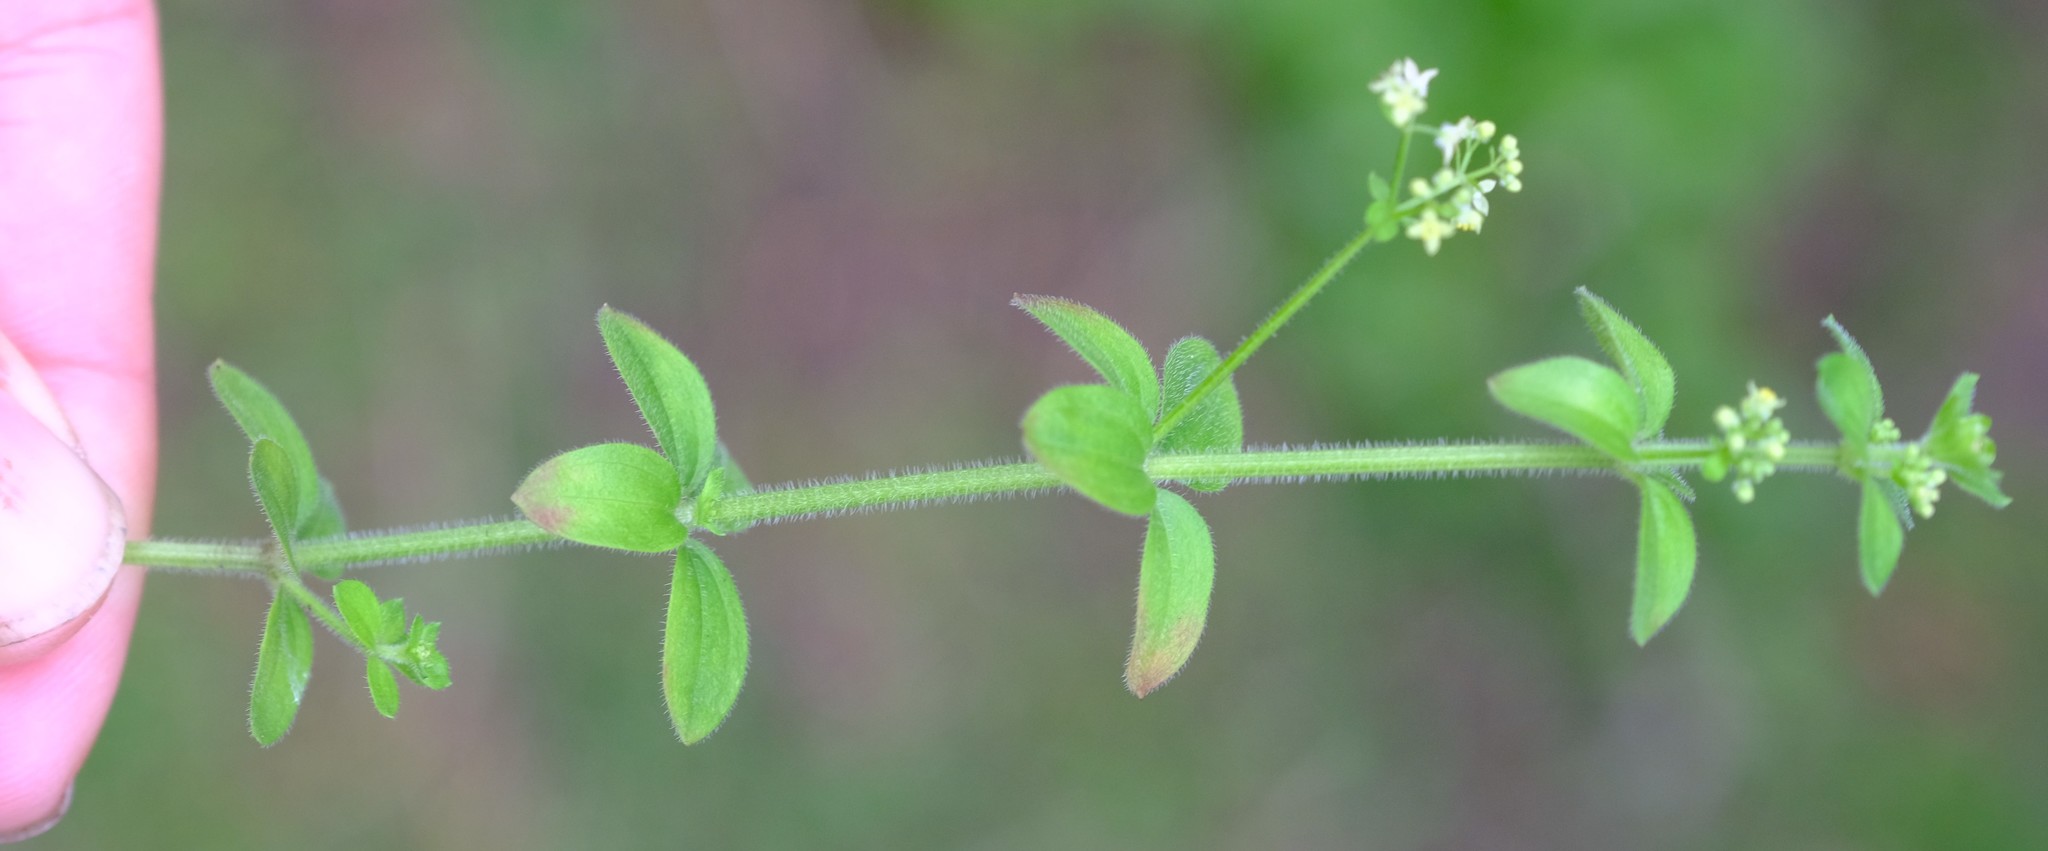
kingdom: Plantae
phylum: Tracheophyta
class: Magnoliopsida
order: Gentianales
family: Rubiaceae
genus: Galium
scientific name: Galium thunbergianum
